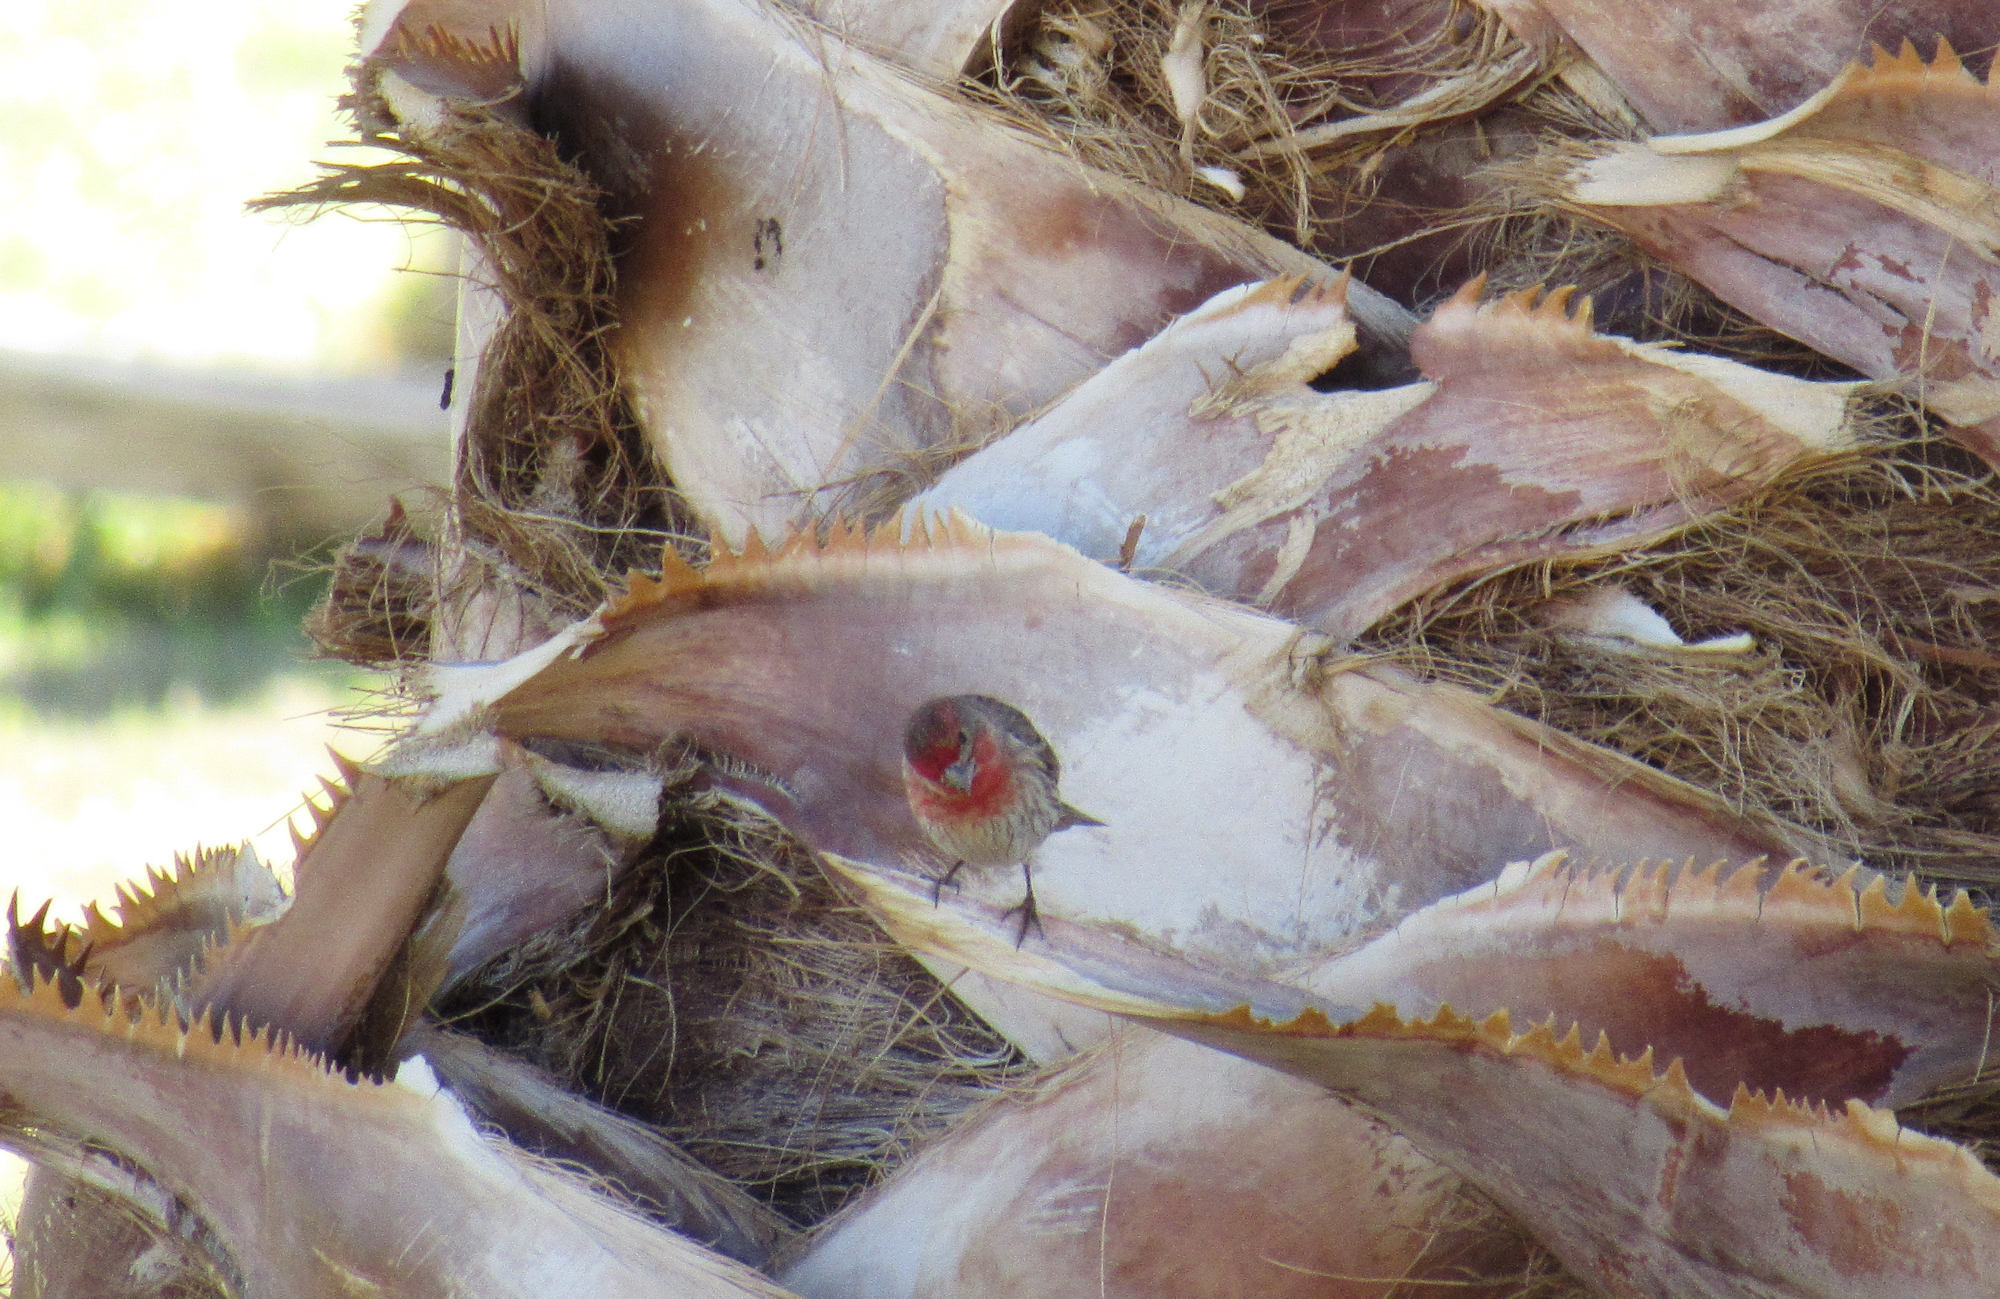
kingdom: Animalia
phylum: Chordata
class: Aves
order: Passeriformes
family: Fringillidae
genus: Haemorhous
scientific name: Haemorhous mexicanus
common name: House finch
